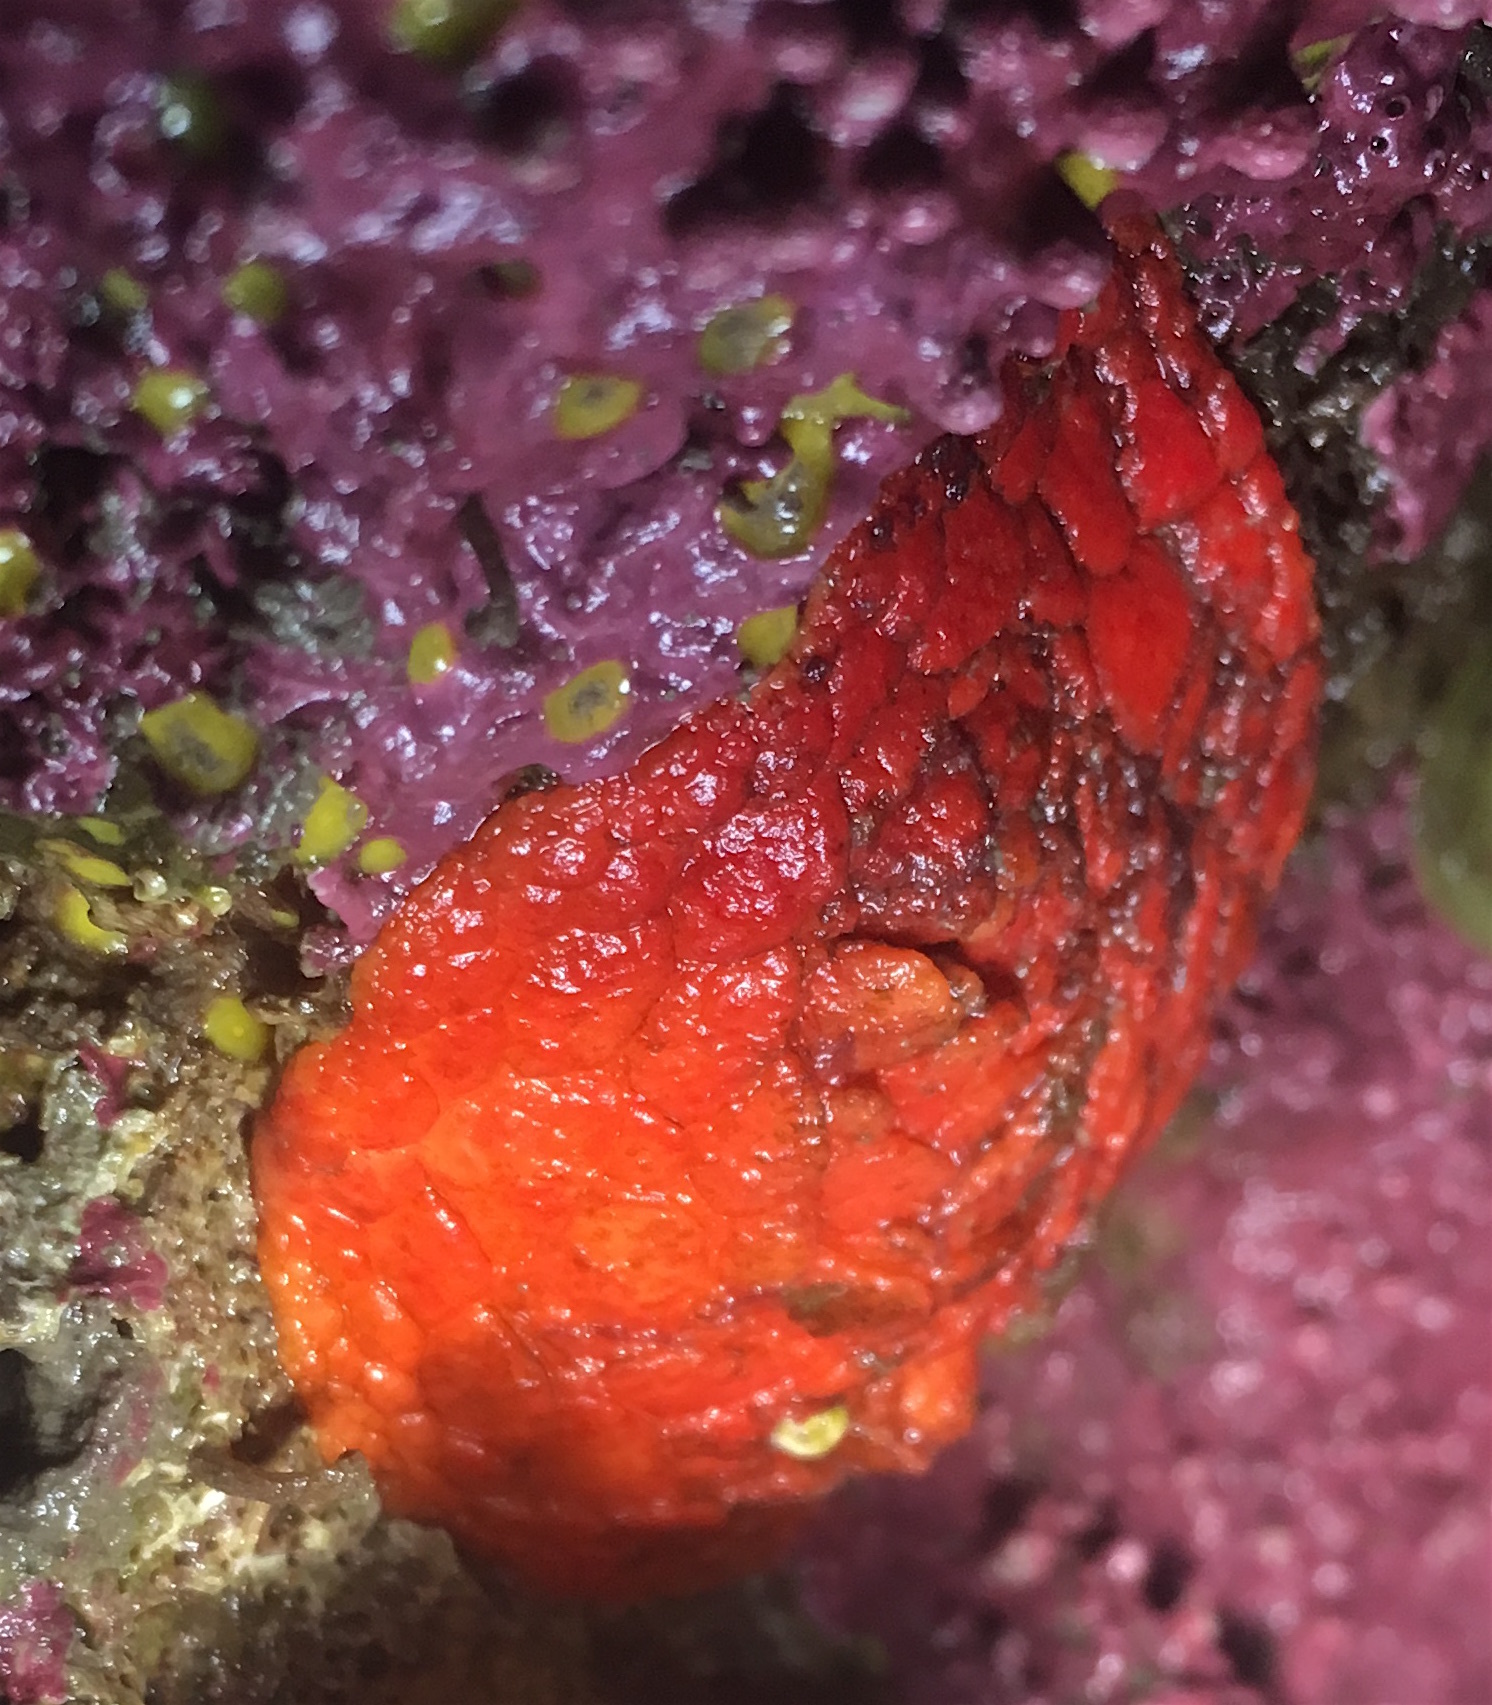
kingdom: Animalia
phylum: Echinodermata
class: Holothuroidea
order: Dendrochirotida
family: Psolidae
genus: Psolus
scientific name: Psolus chitonoides
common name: Creeping pedal sea cucumber
